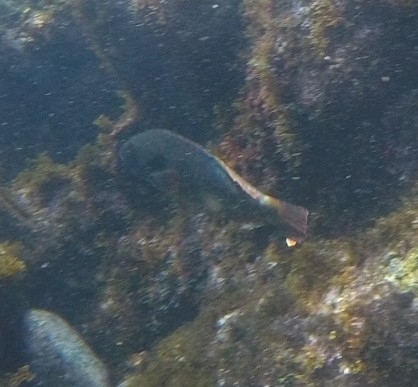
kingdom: Animalia
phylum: Chordata
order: Perciformes
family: Scaridae
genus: Sparisoma
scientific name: Sparisoma cretense
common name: Parrotfish
